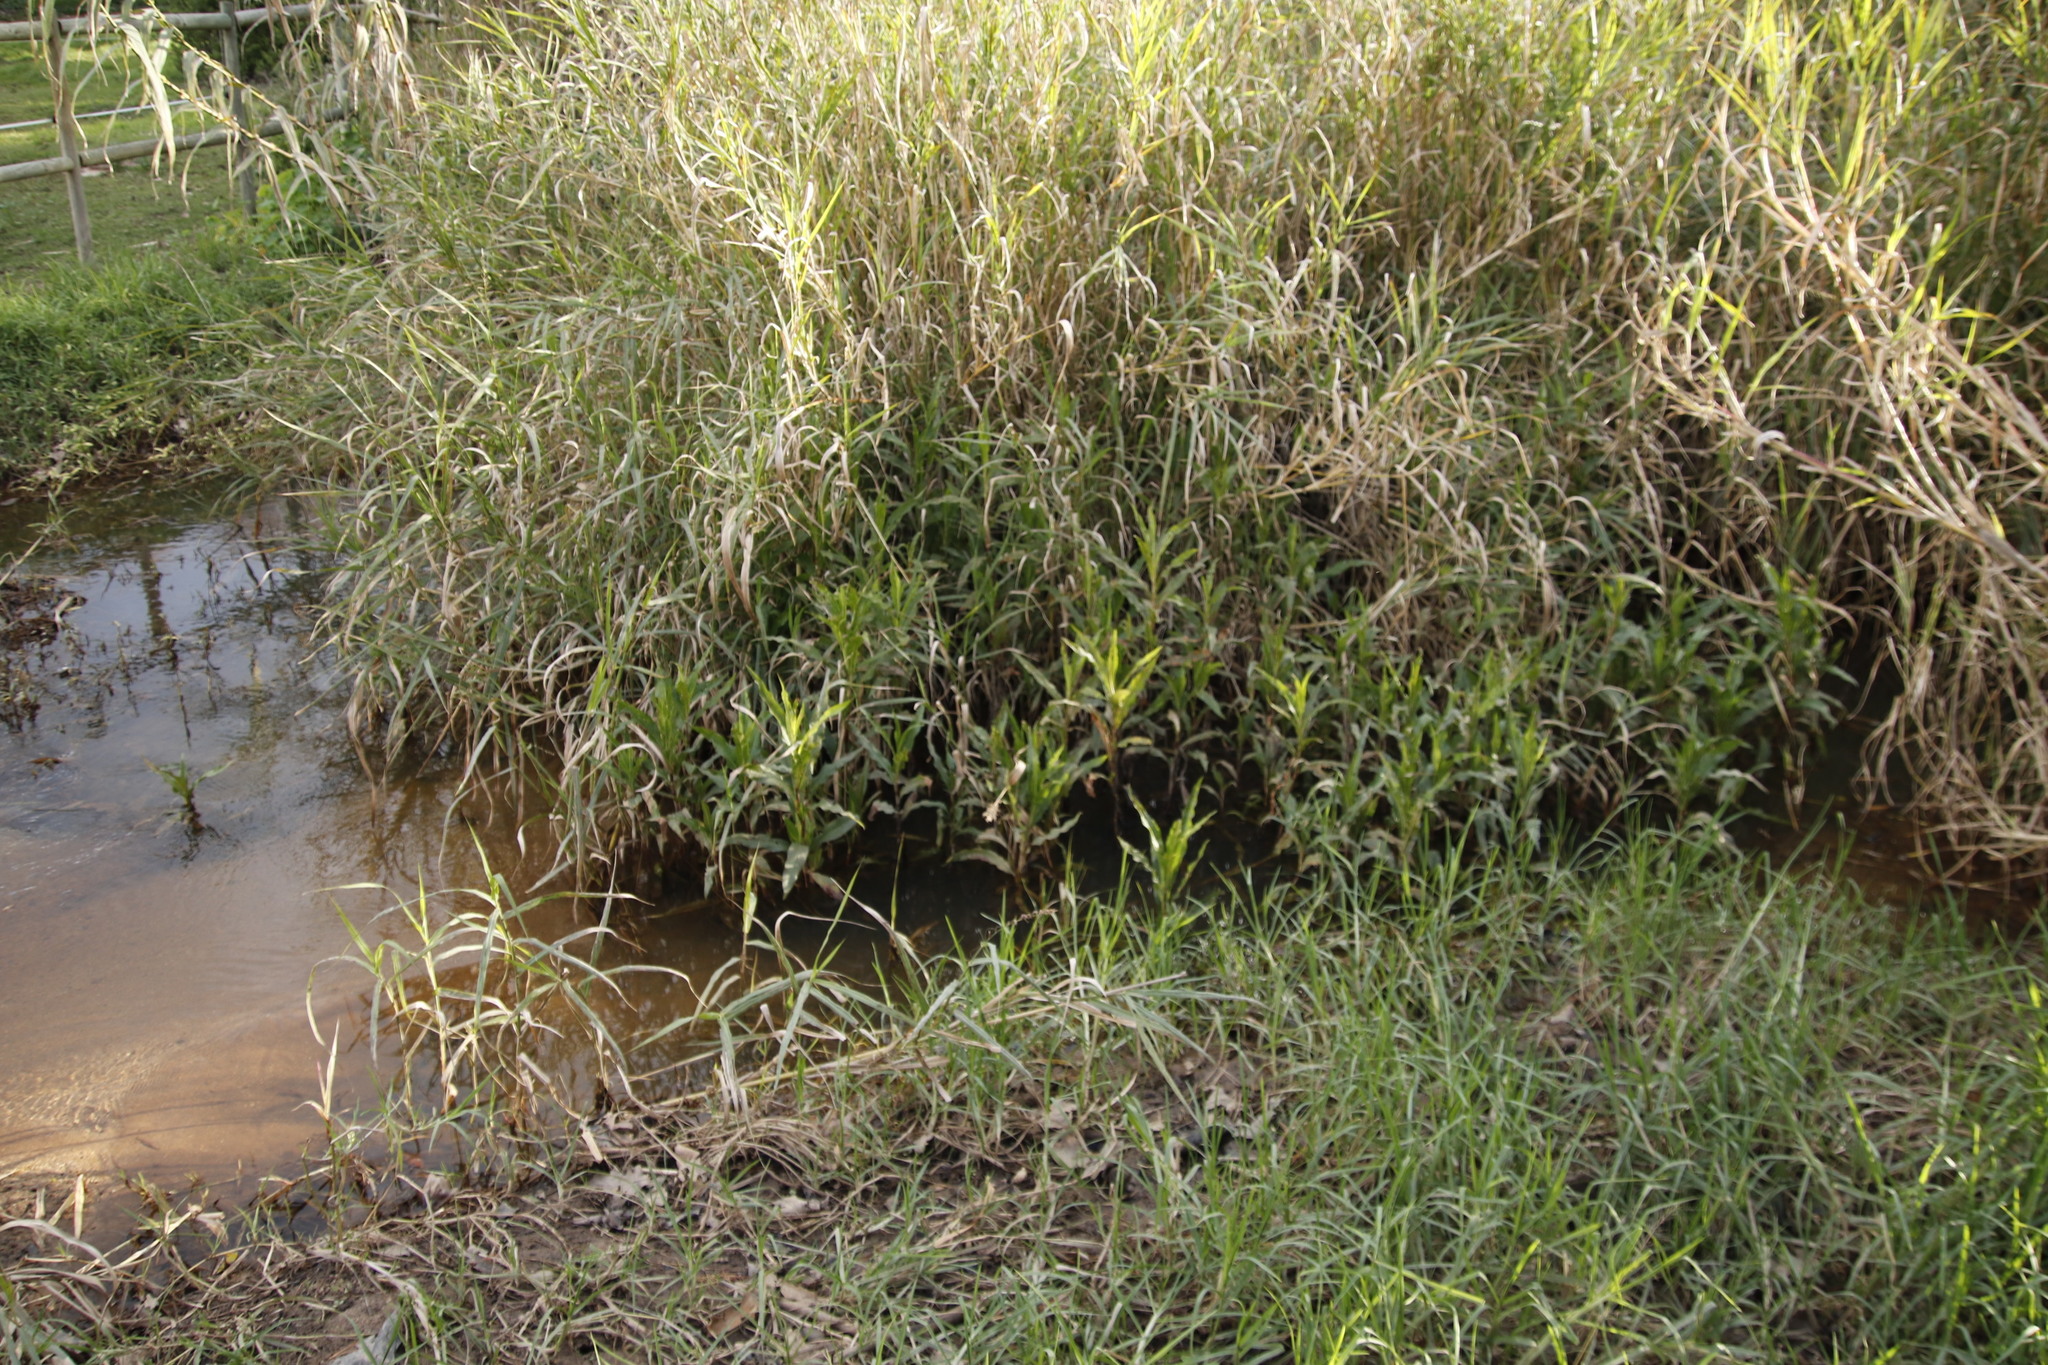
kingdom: Plantae
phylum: Tracheophyta
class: Magnoliopsida
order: Caryophyllales
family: Polygonaceae
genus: Persicaria
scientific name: Persicaria madagascariensis
